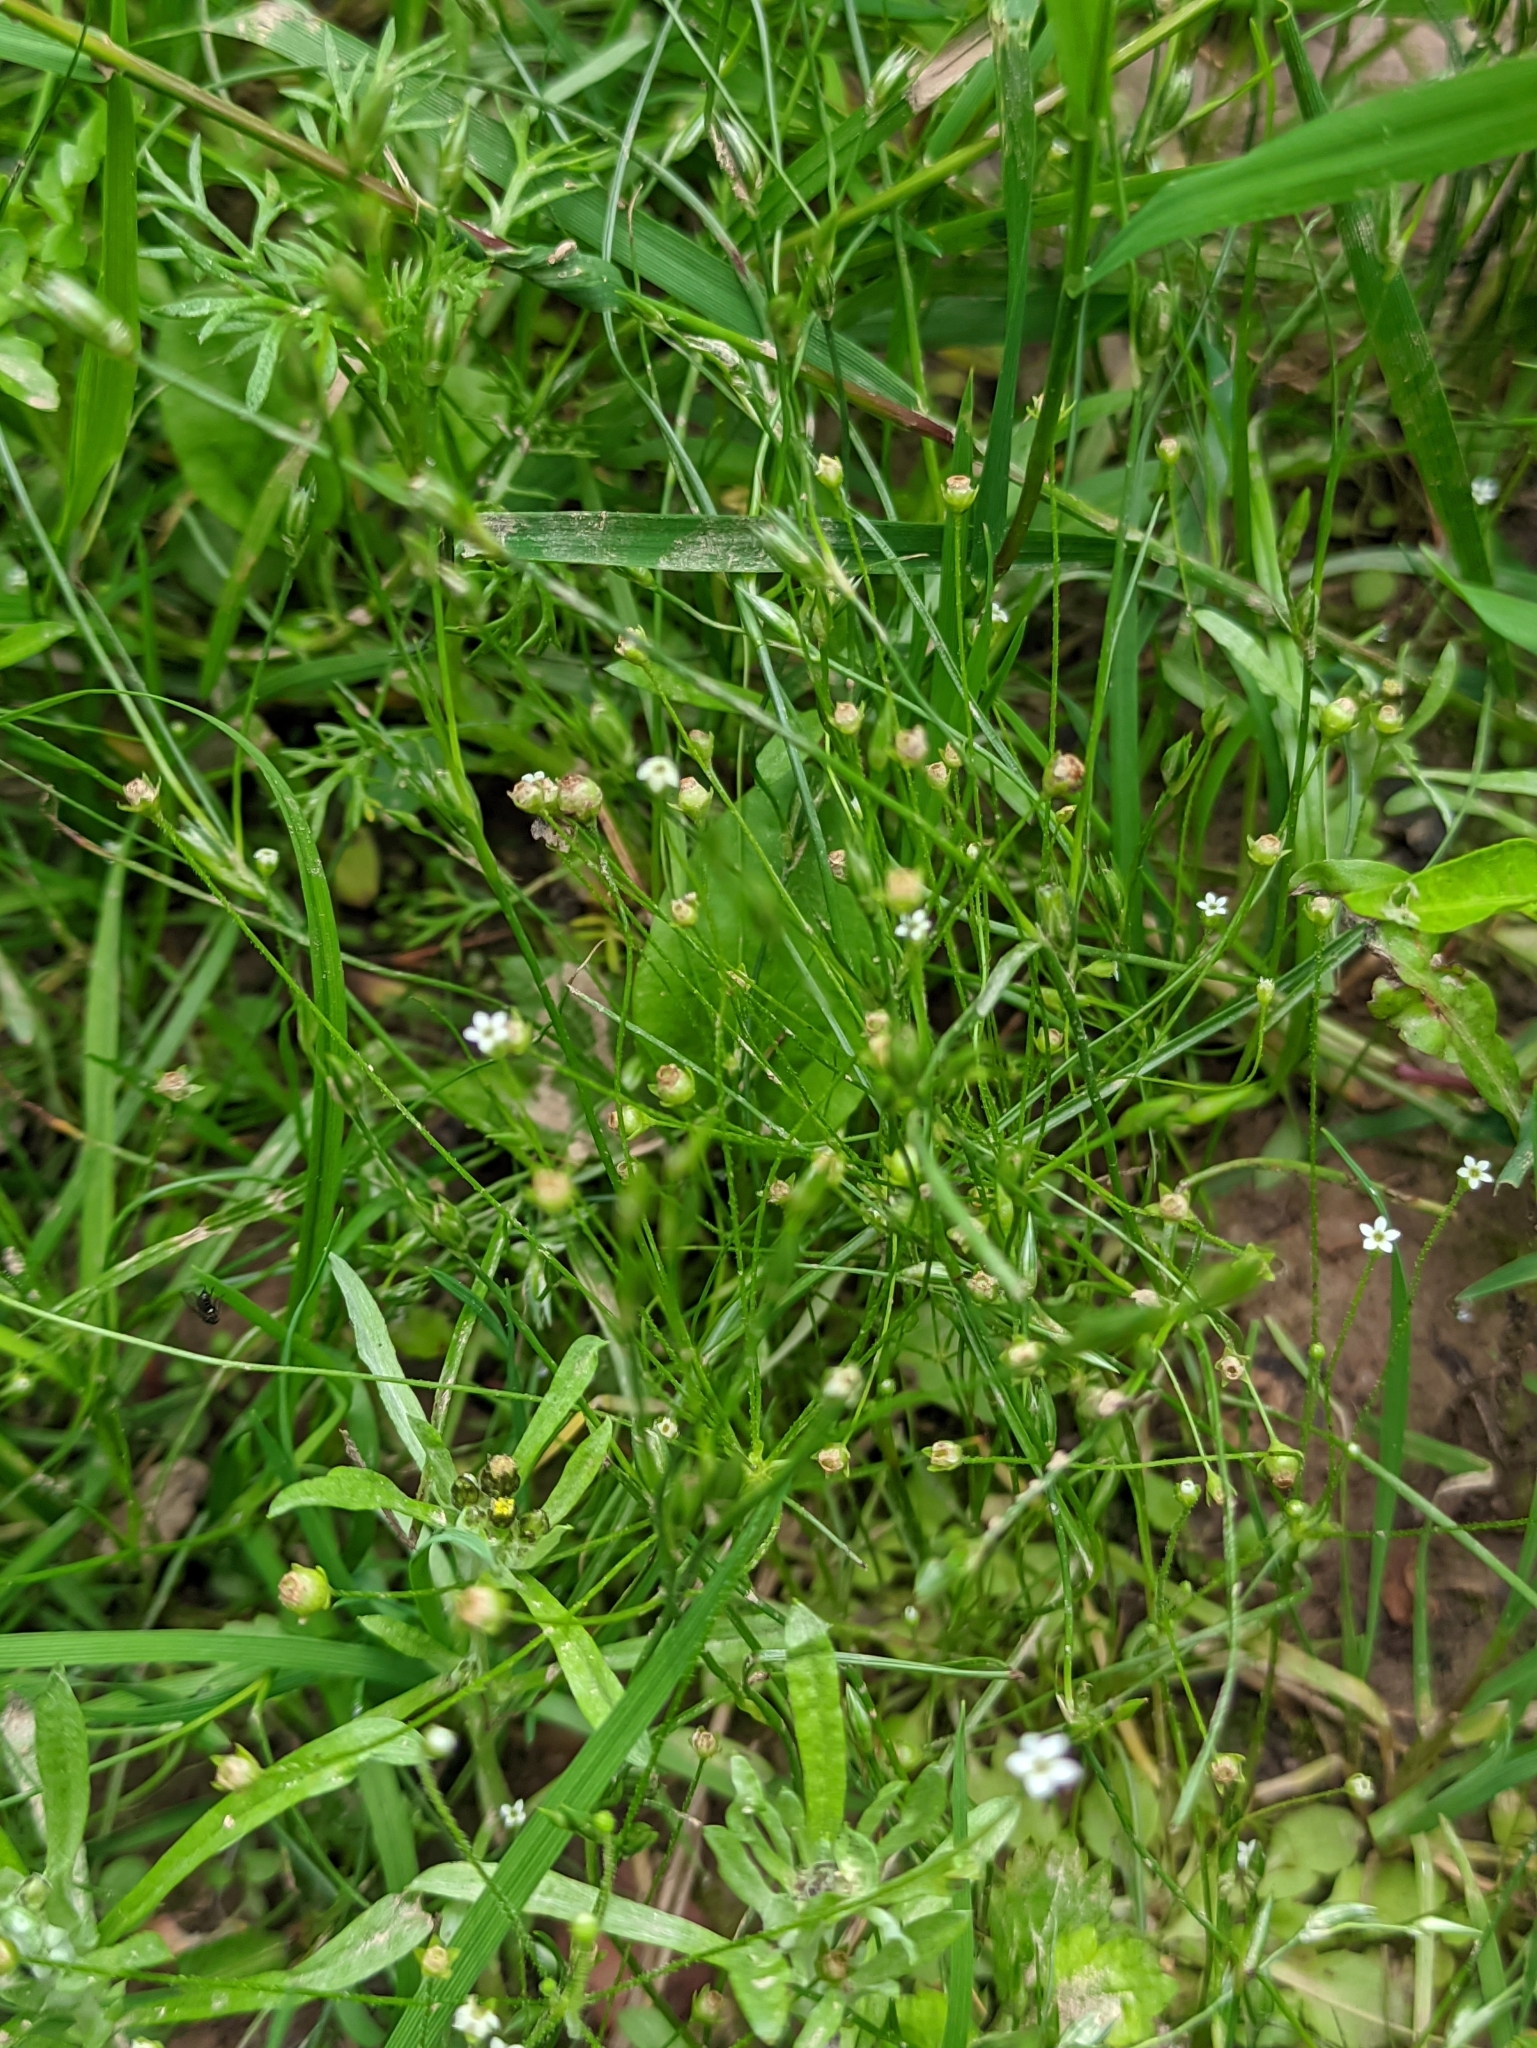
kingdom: Plantae
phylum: Tracheophyta
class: Magnoliopsida
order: Ericales
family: Primulaceae
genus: Androsace
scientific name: Androsace filiformis
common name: Filiform rock jasmine
